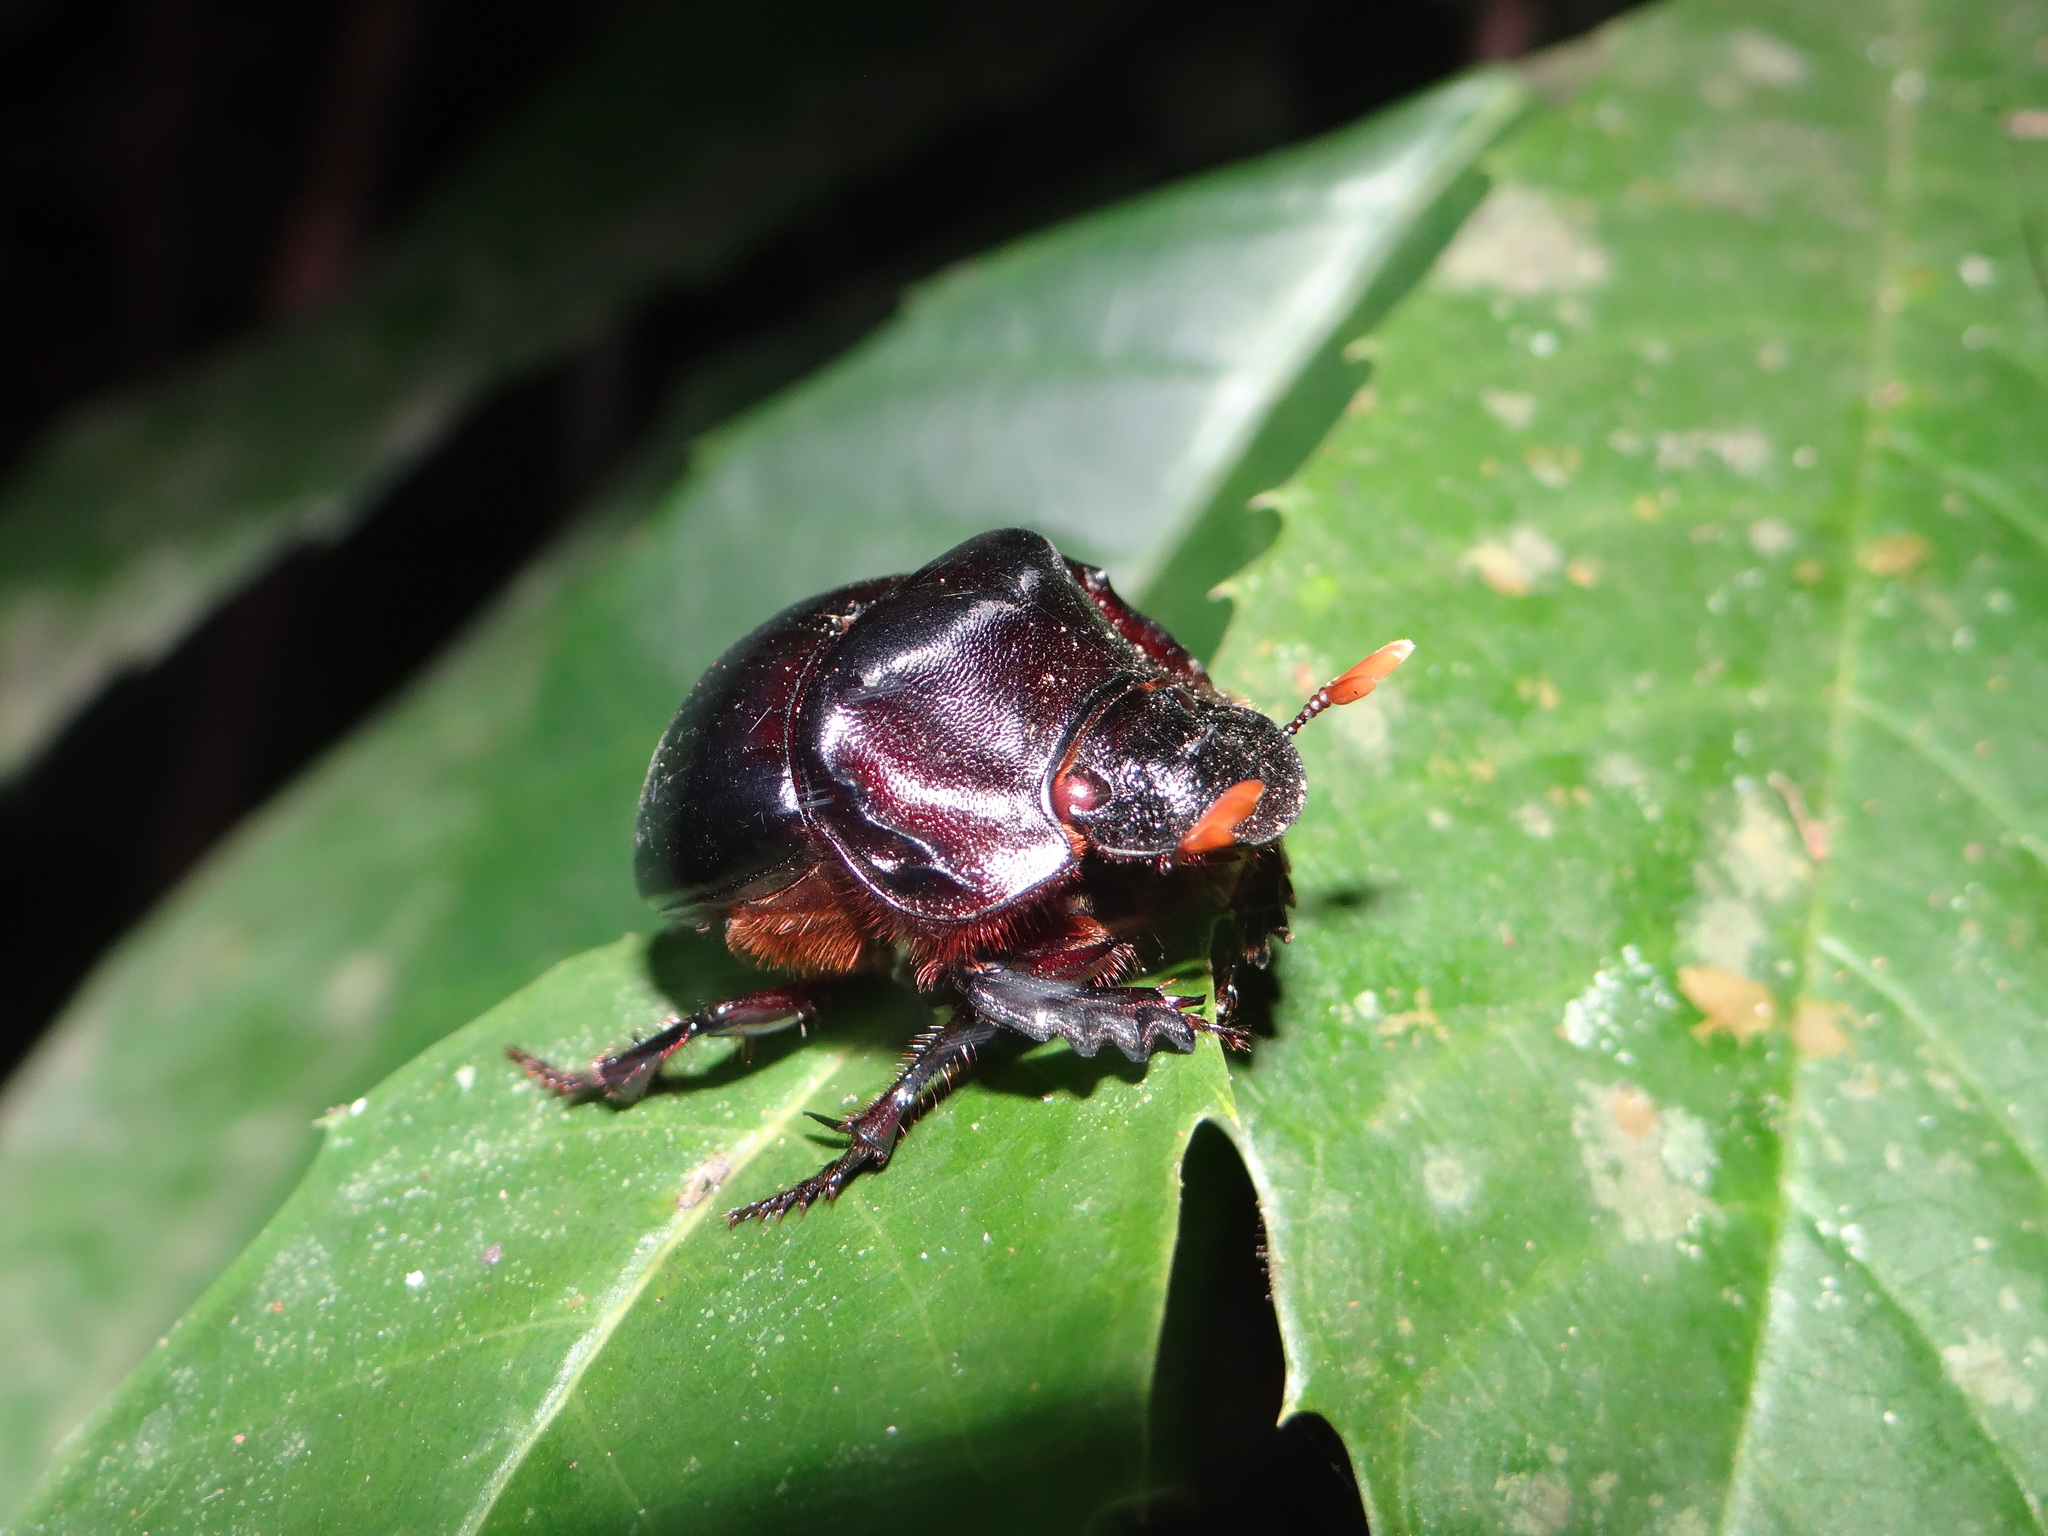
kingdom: Animalia
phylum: Arthropoda
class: Insecta
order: Coleoptera
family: Scarabaeidae
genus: Dichotomius
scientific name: Dichotomius melzeri
